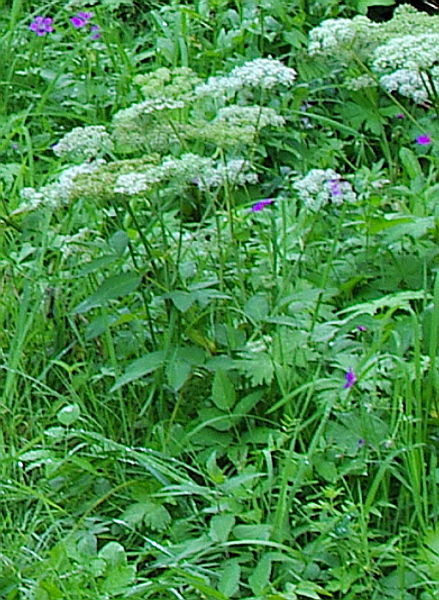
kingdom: Plantae
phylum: Tracheophyta
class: Magnoliopsida
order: Apiales
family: Apiaceae
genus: Aegopodium
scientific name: Aegopodium podagraria
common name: Ground-elder
